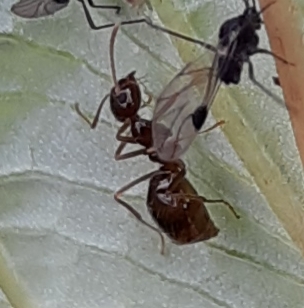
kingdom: Animalia
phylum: Arthropoda
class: Insecta
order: Hymenoptera
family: Formicidae
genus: Prenolepis
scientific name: Prenolepis imparis
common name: Small honey ant
